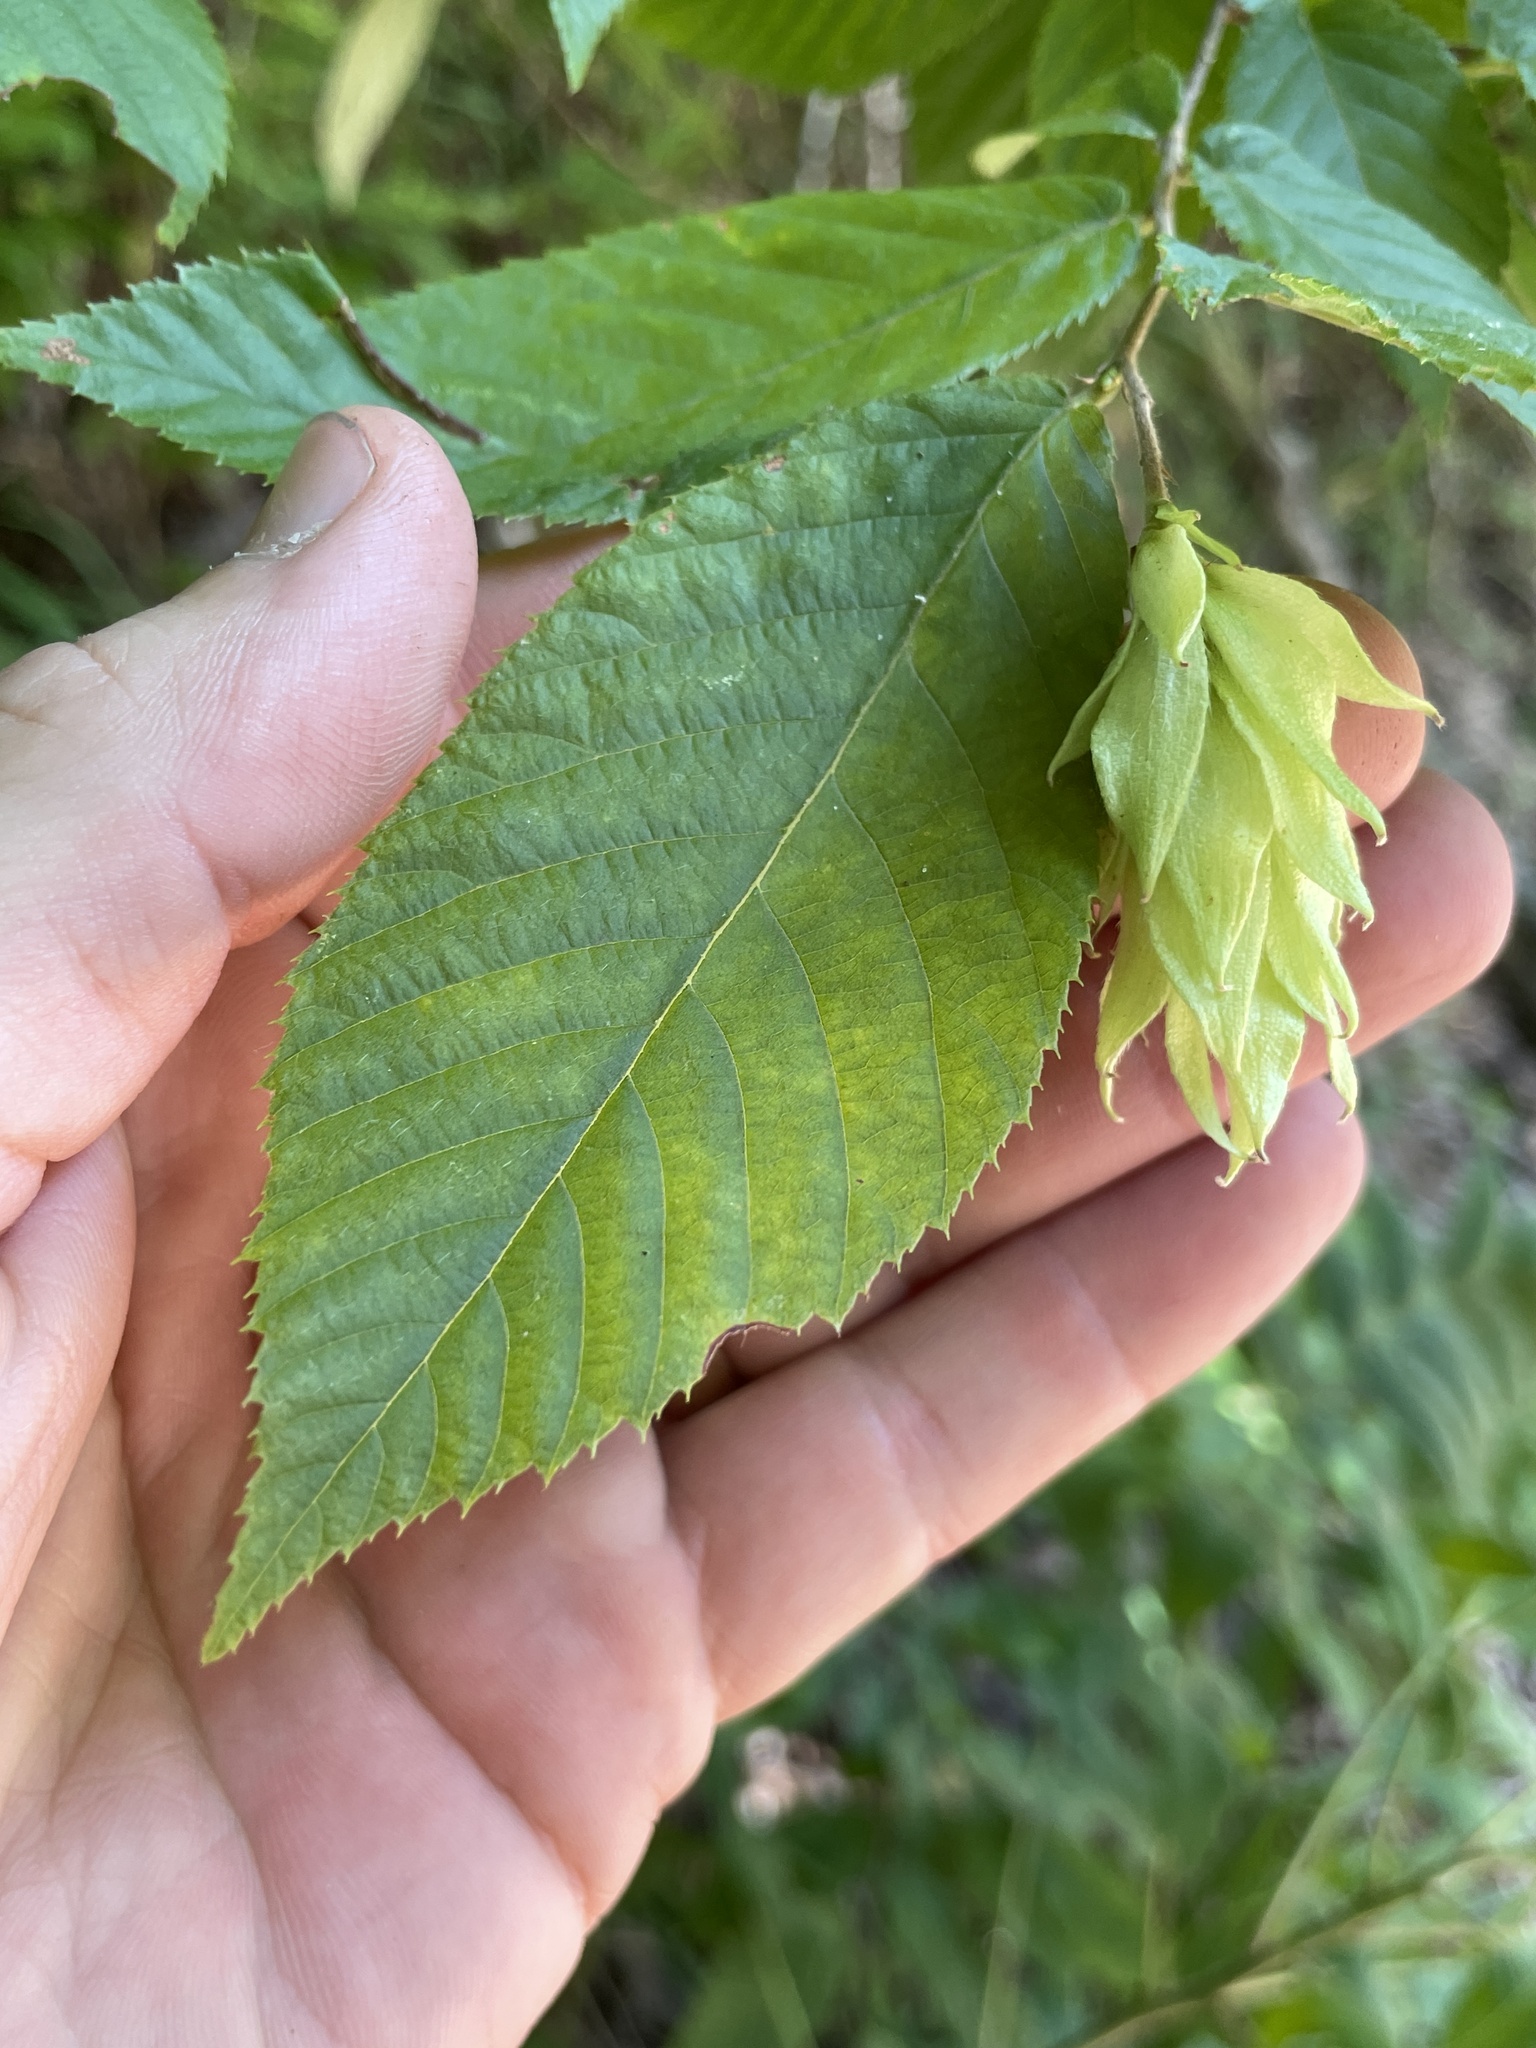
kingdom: Plantae
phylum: Tracheophyta
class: Magnoliopsida
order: Fagales
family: Betulaceae
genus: Ostrya
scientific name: Ostrya virginiana
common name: Ironwood
